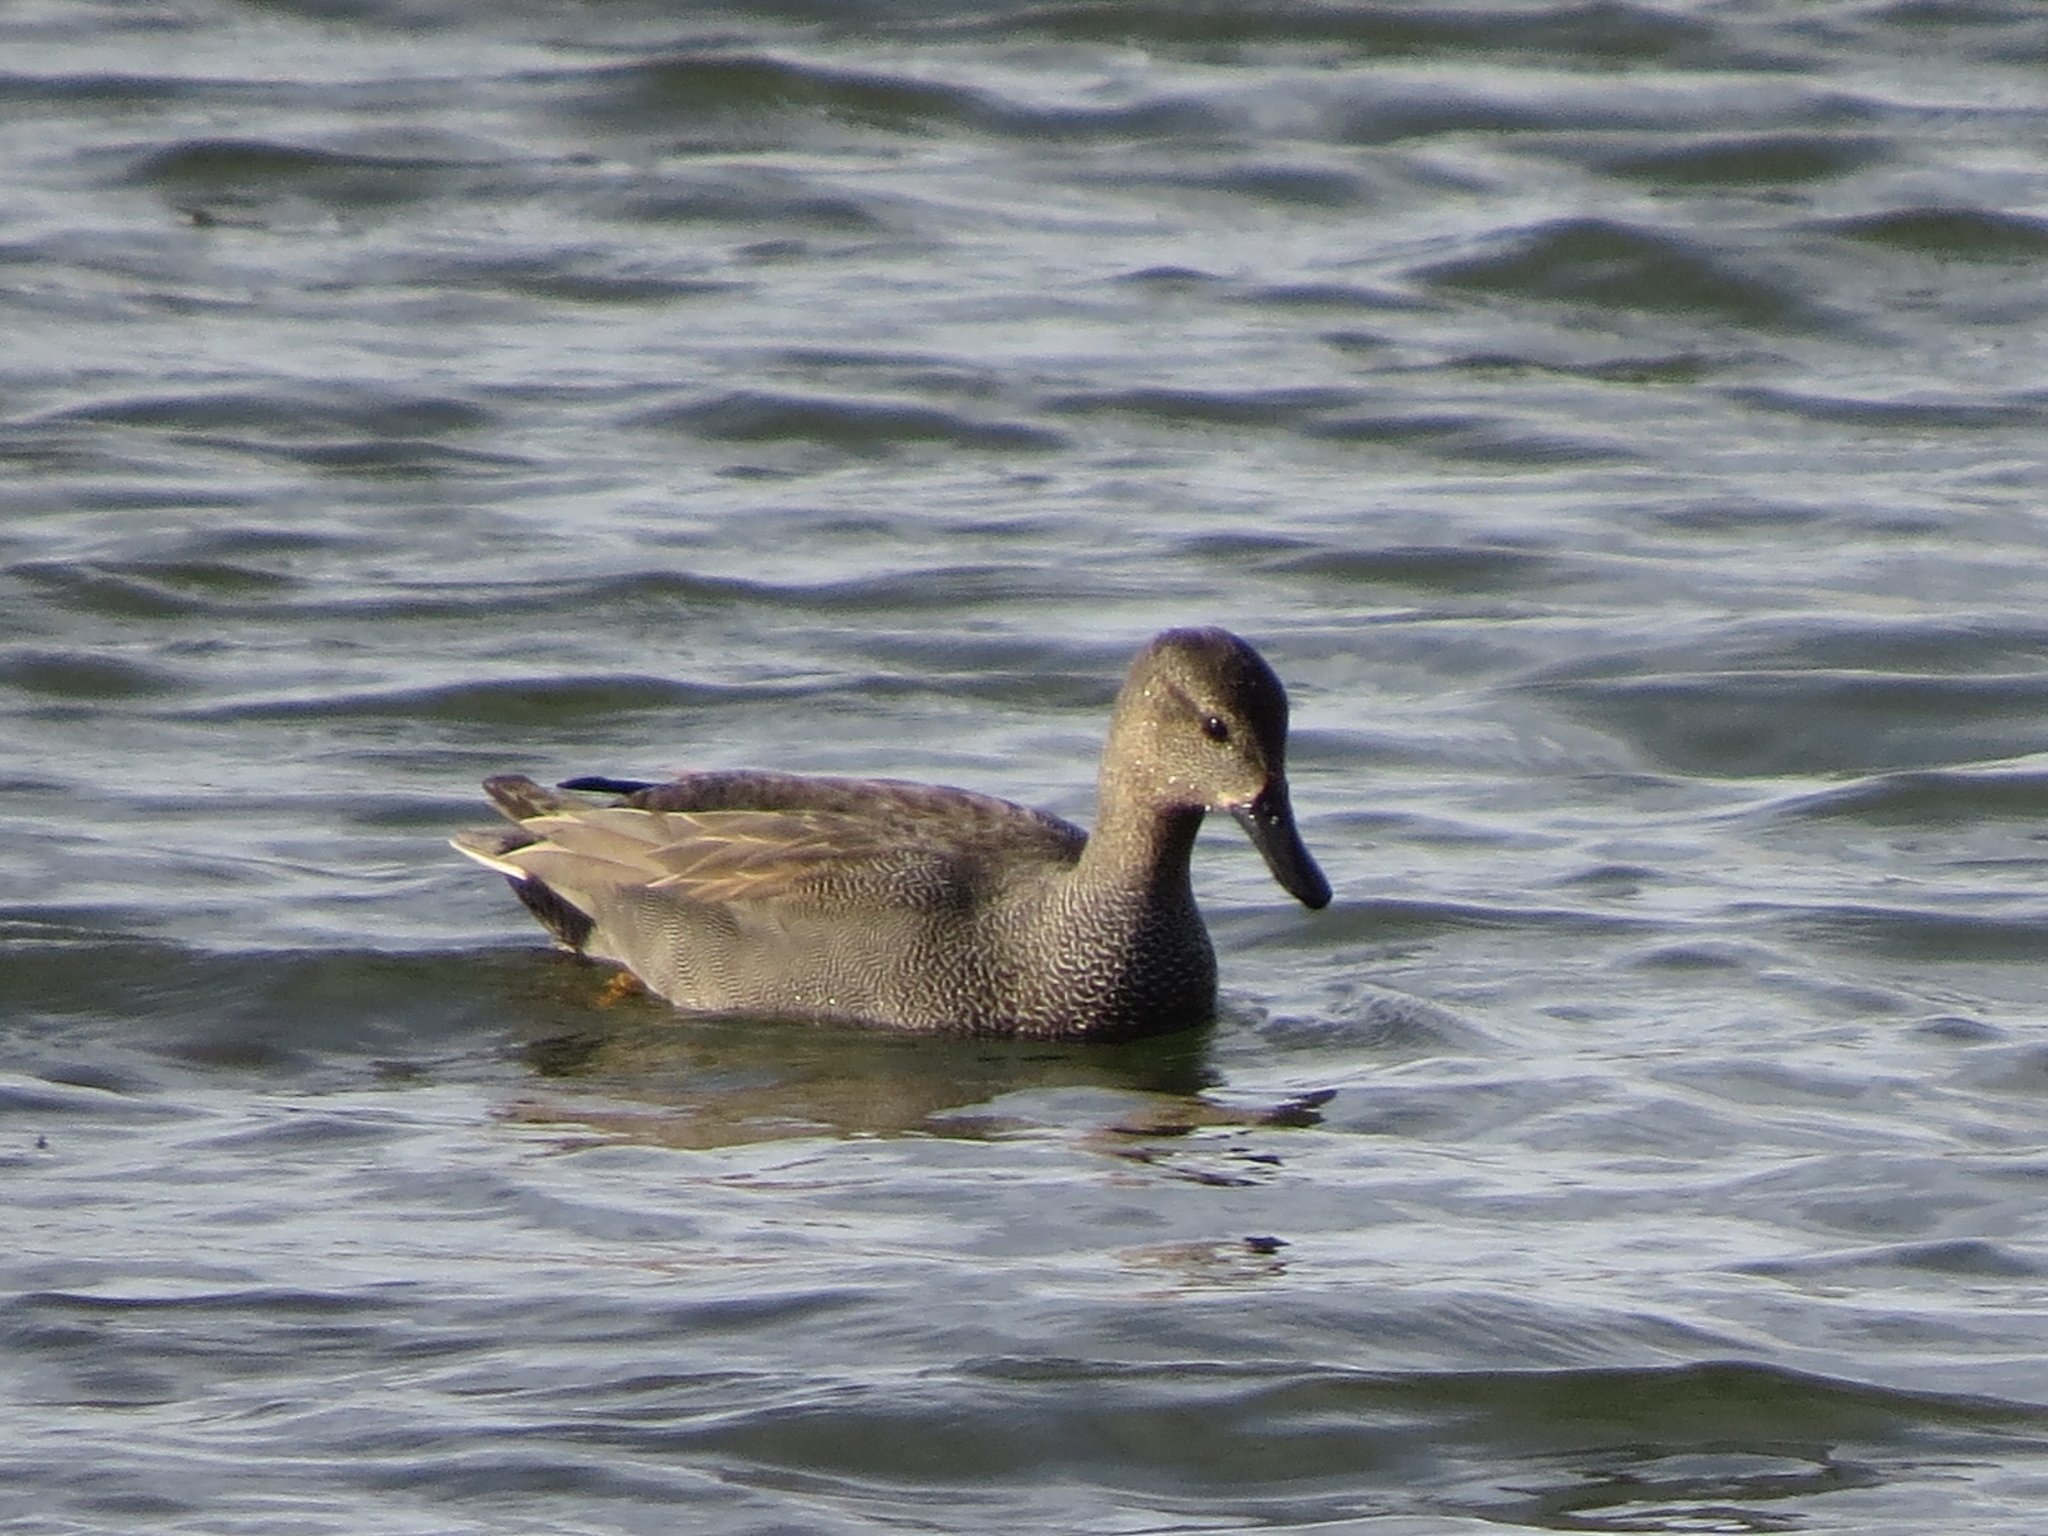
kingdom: Animalia
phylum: Chordata
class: Aves
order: Anseriformes
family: Anatidae
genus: Mareca
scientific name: Mareca strepera
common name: Gadwall
